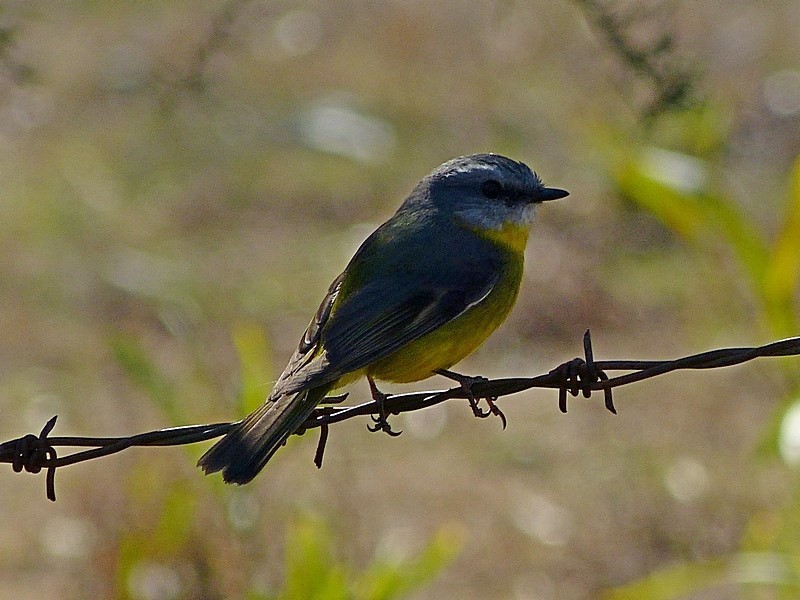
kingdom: Animalia
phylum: Chordata
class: Aves
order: Passeriformes
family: Petroicidae
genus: Eopsaltria
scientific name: Eopsaltria australis
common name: Eastern yellow robin
